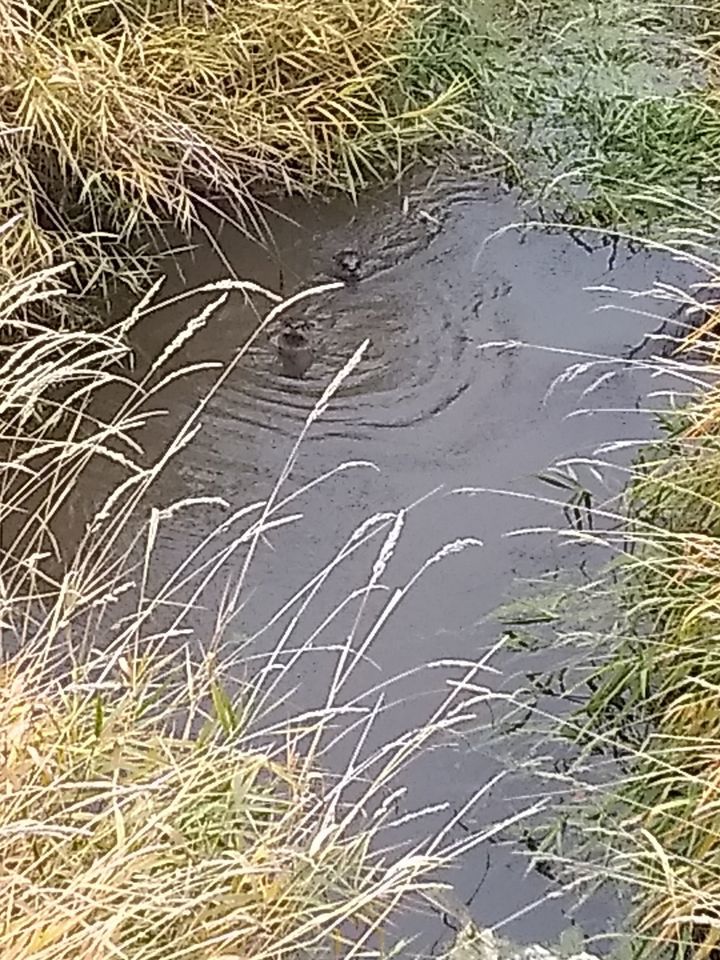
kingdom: Animalia
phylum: Chordata
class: Mammalia
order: Carnivora
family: Mustelidae
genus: Lontra
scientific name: Lontra canadensis
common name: North american river otter
